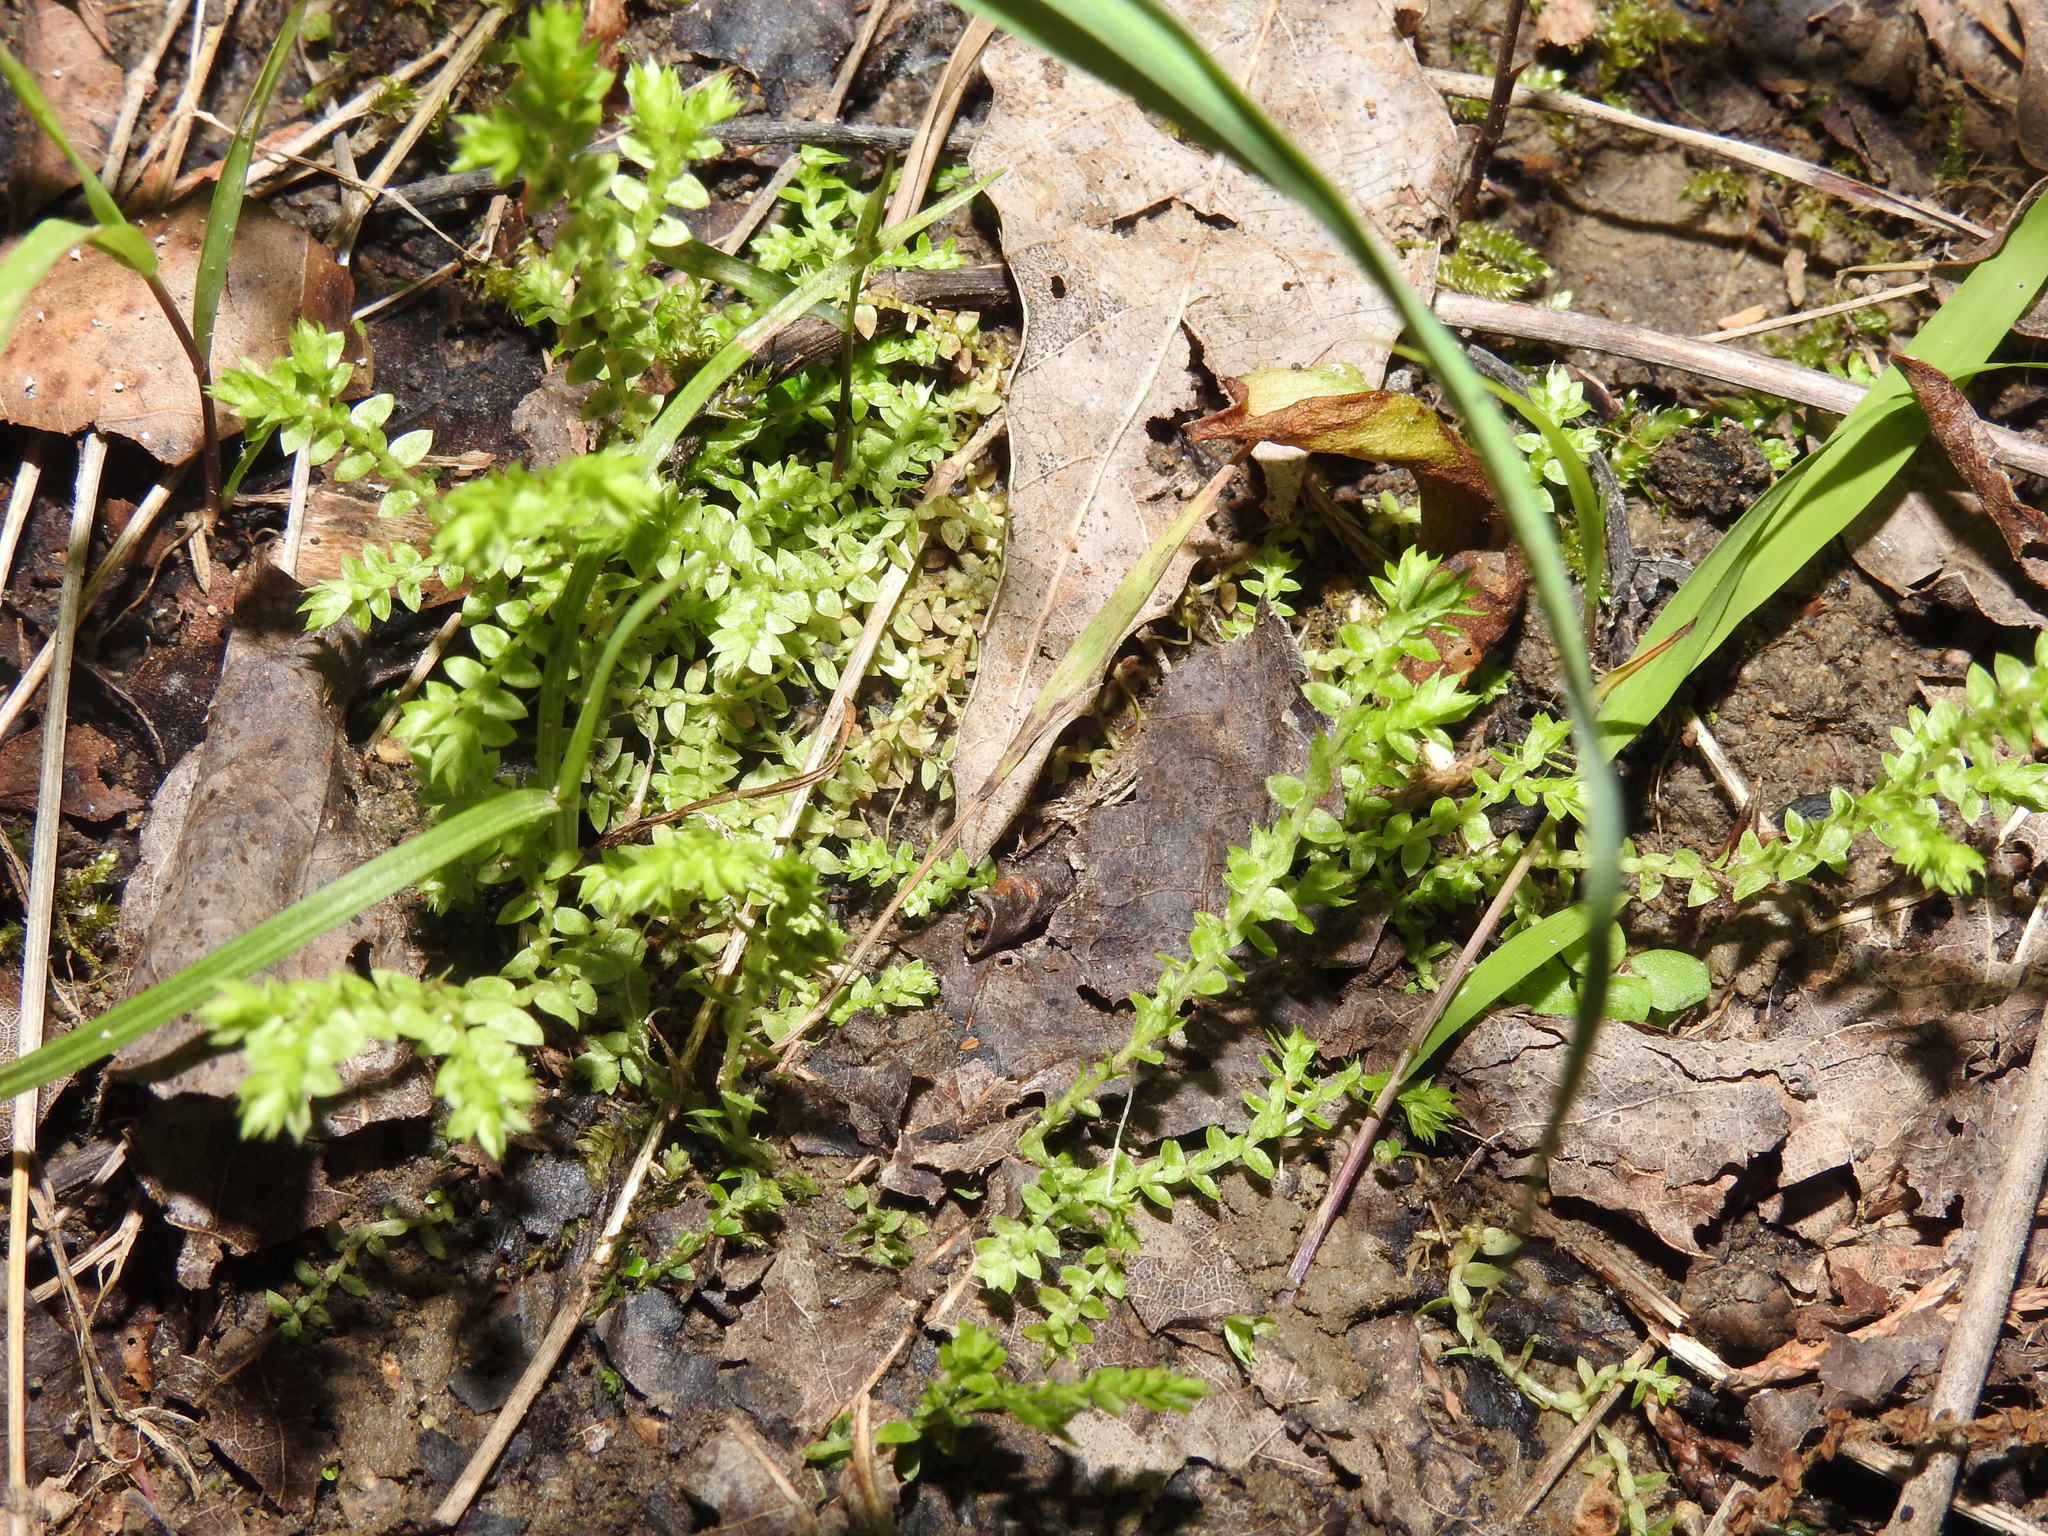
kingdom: Plantae
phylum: Tracheophyta
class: Lycopodiopsida
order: Selaginellales
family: Selaginellaceae
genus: Selaginella
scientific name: Selaginella eclipes
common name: Buck's meadow spikemoss
